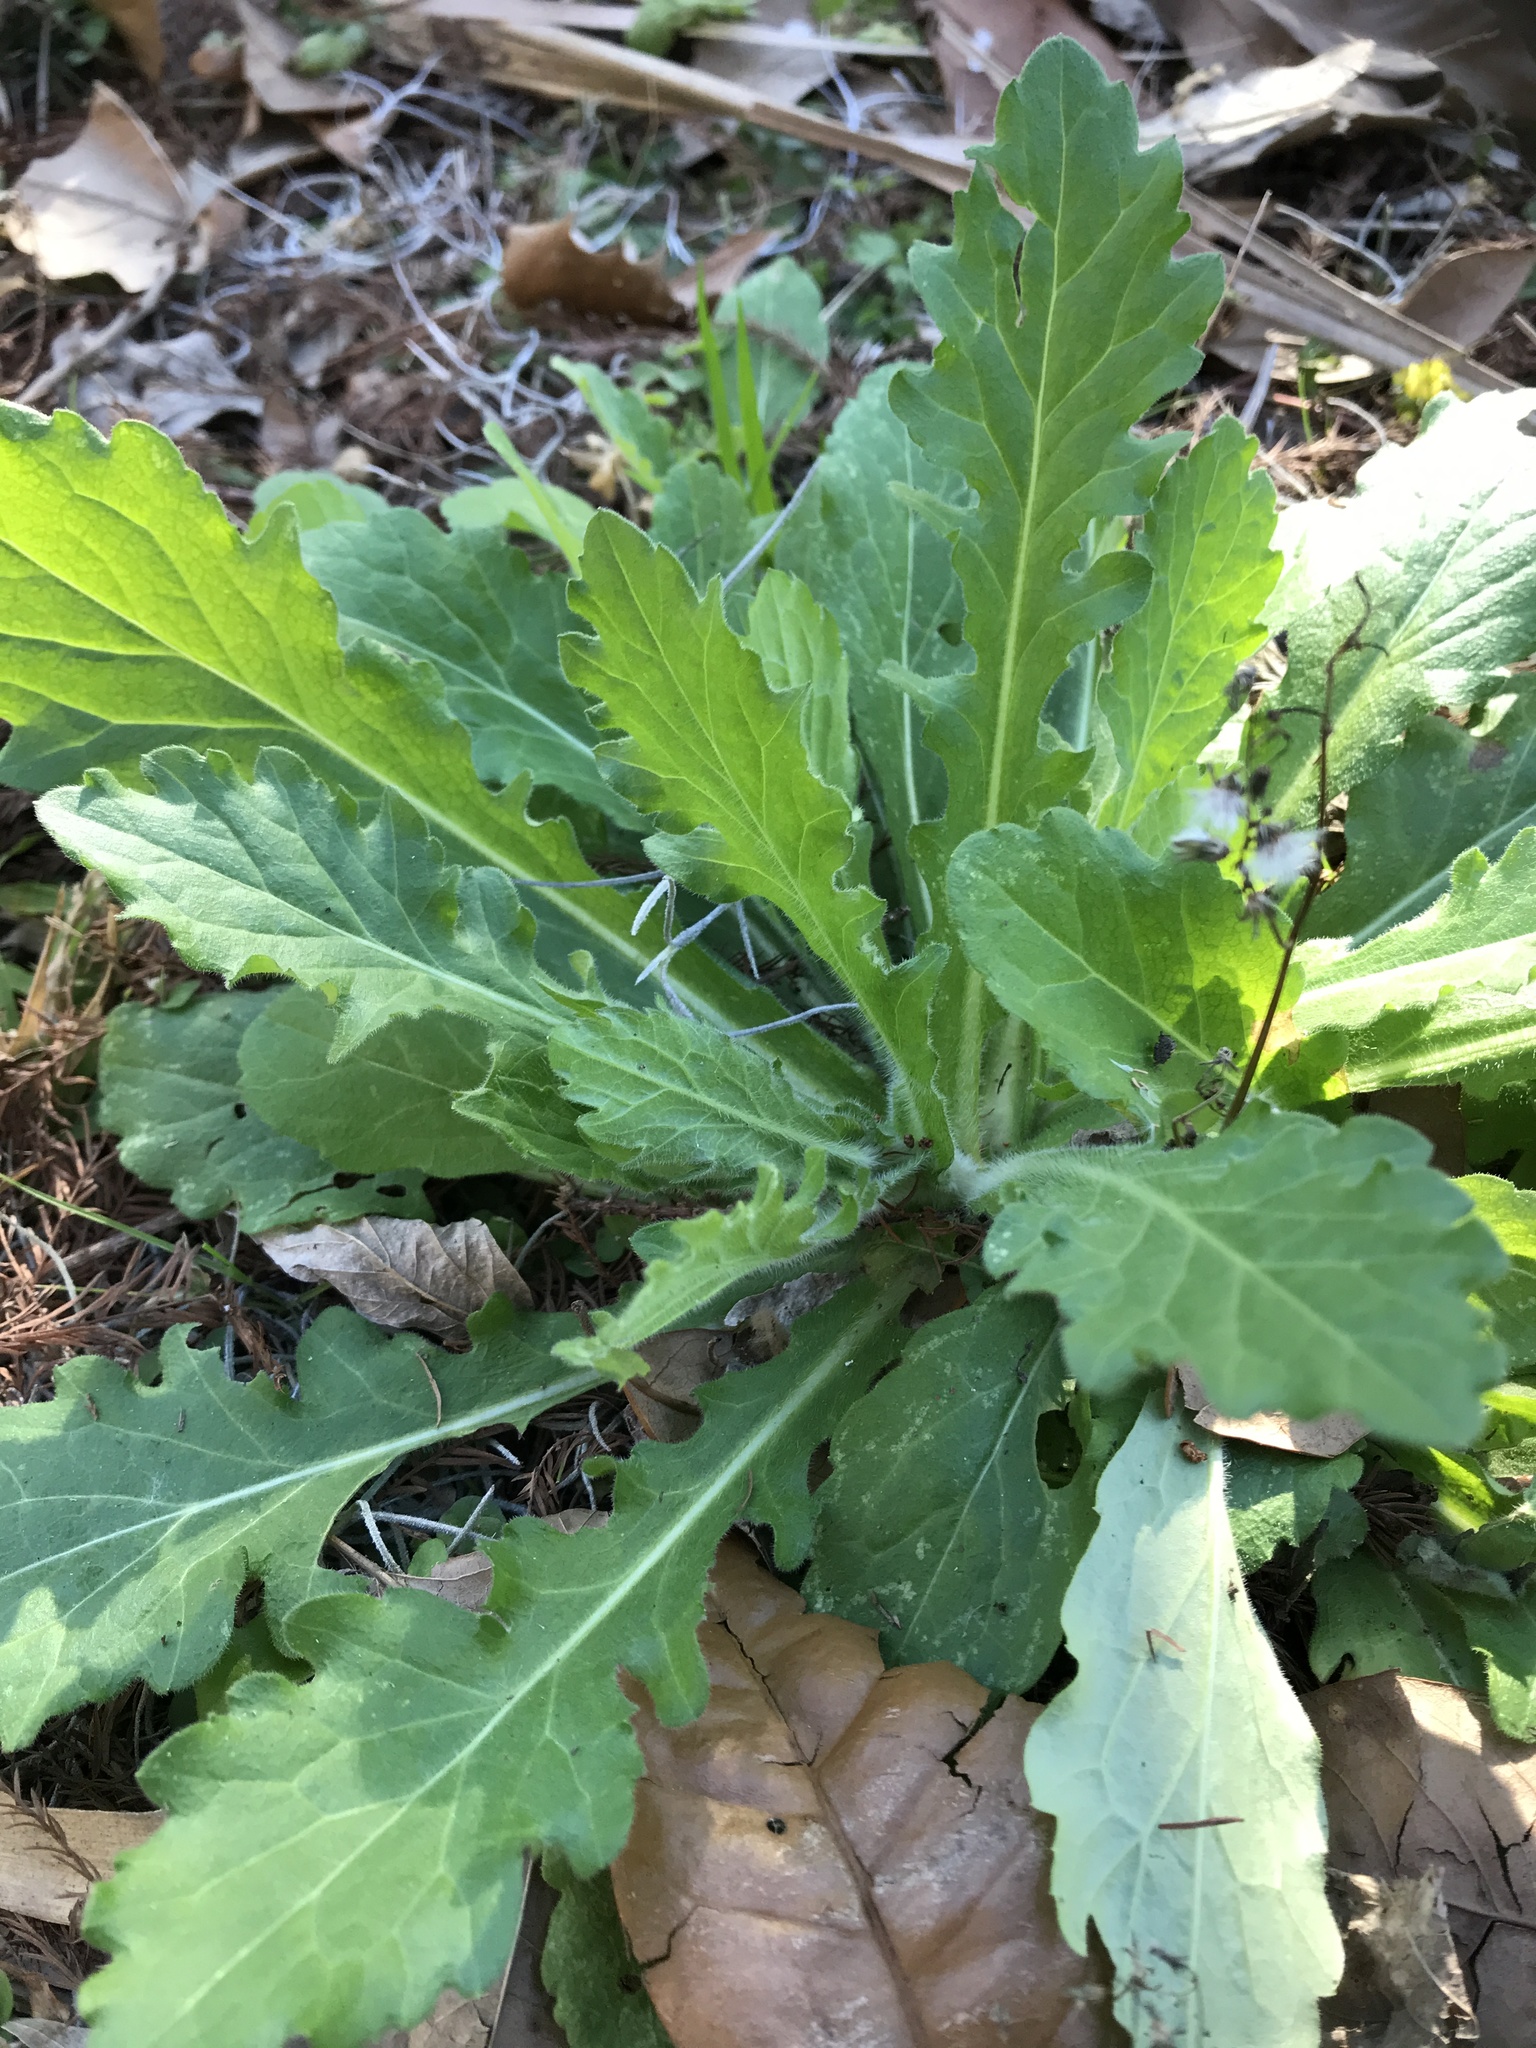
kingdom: Plantae
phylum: Tracheophyta
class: Magnoliopsida
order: Asterales
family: Asteraceae
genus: Erigeron
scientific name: Erigeron philadelphicus
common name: Robin's-plantain
